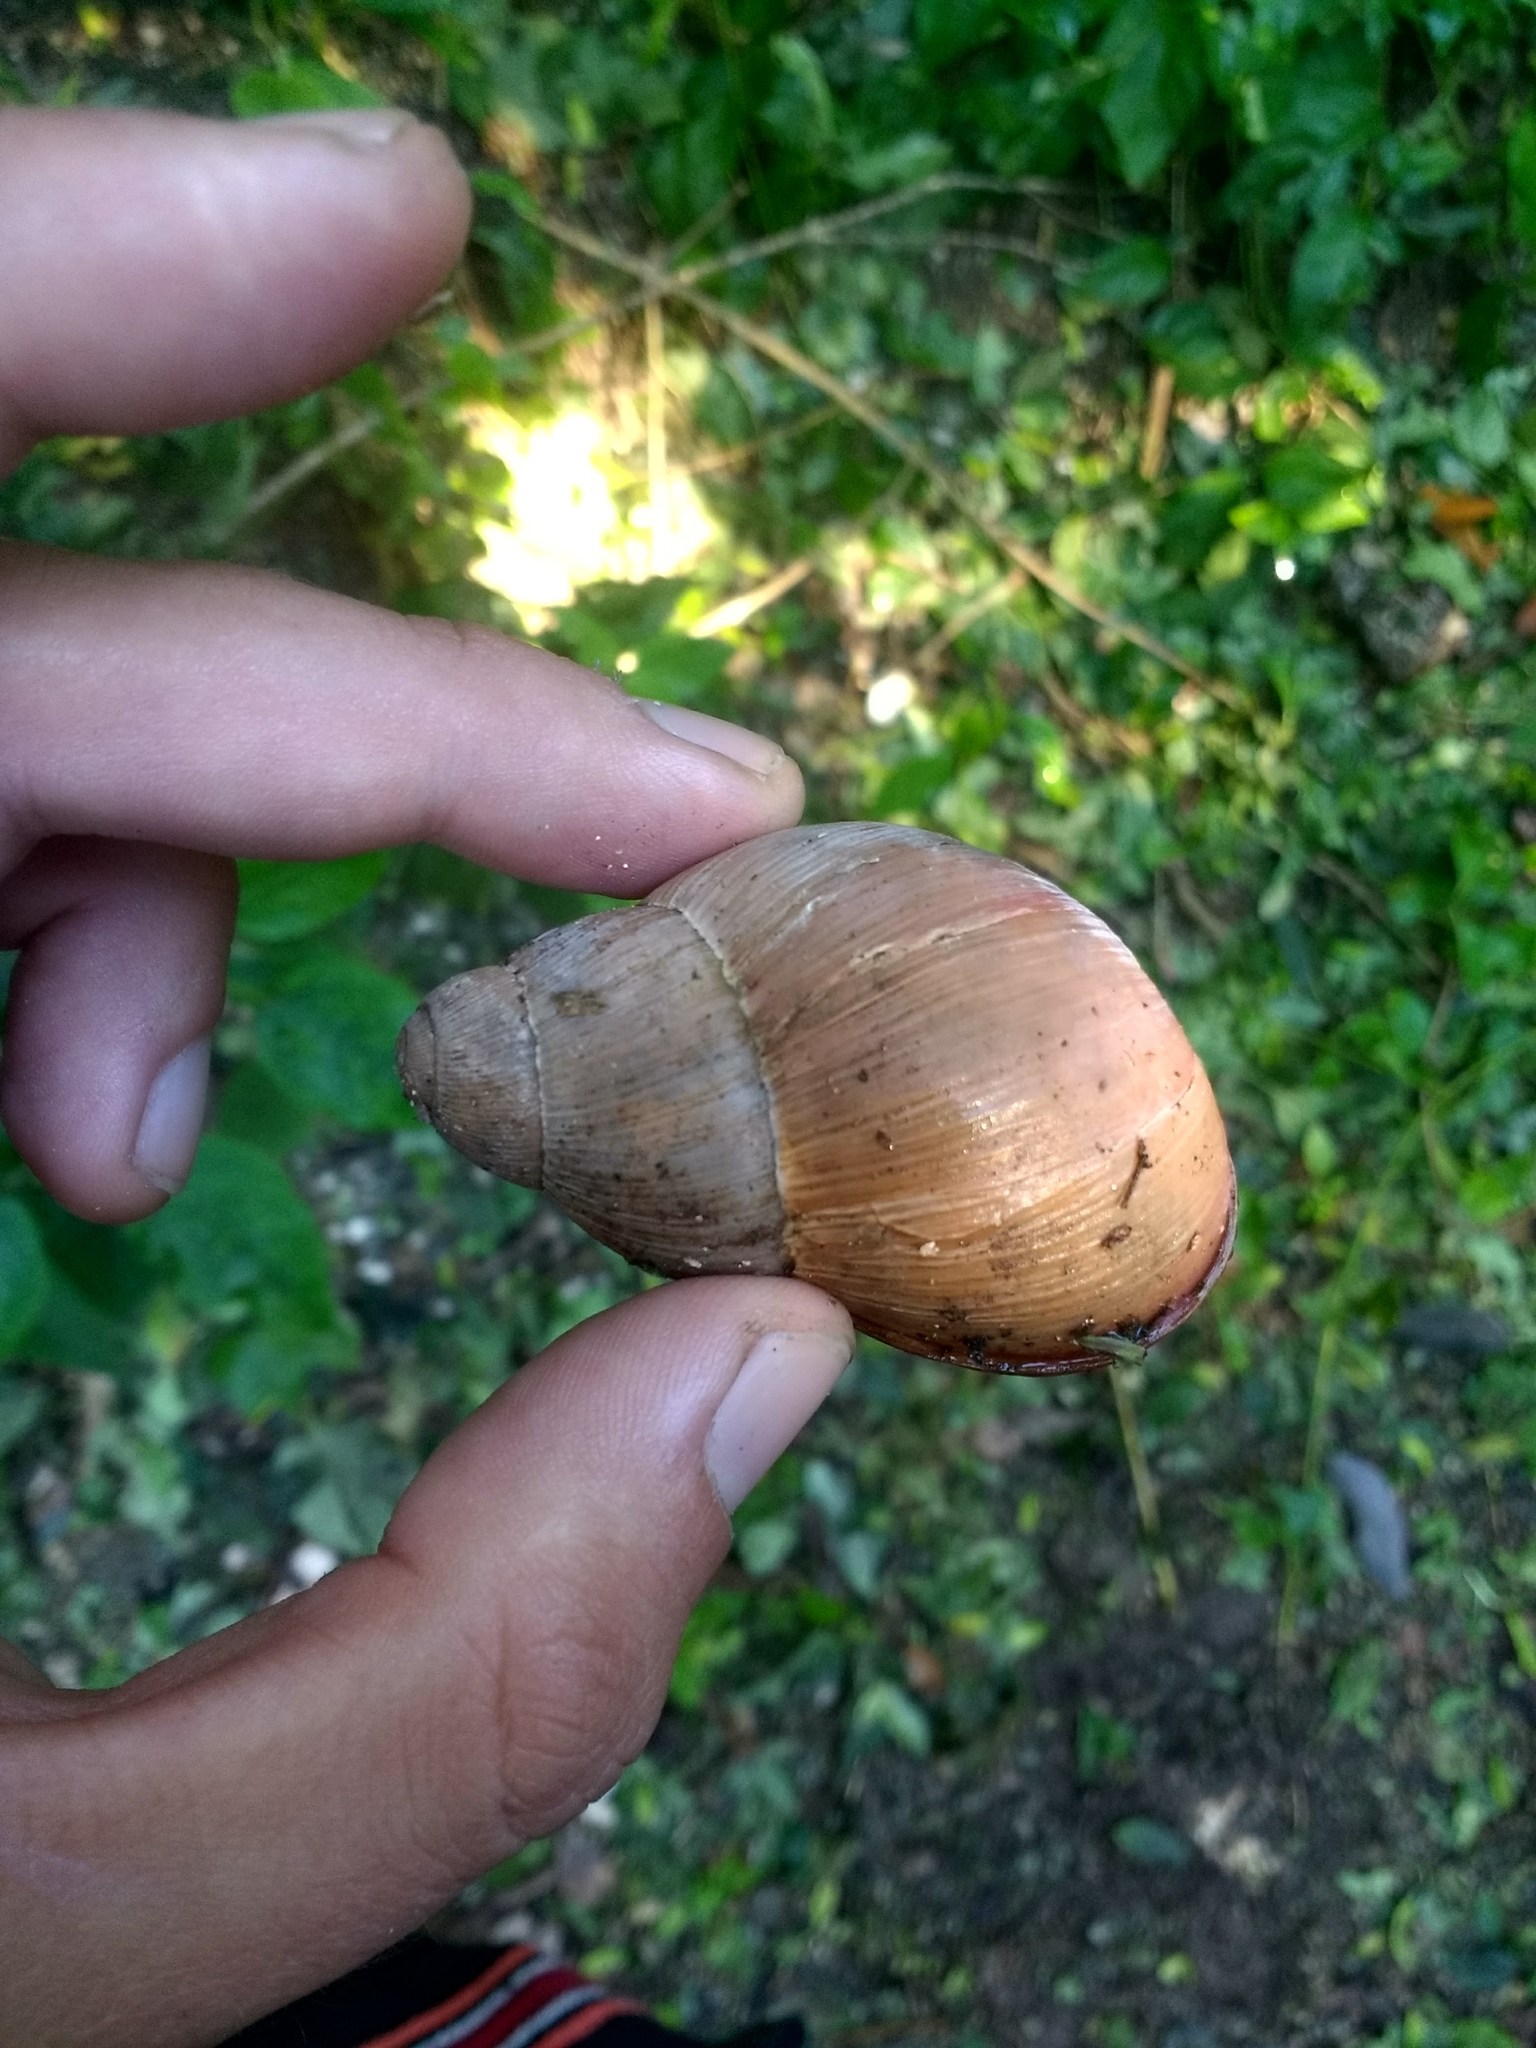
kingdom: Animalia
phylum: Mollusca
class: Gastropoda
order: Stylommatophora
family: Strophocheilidae
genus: Megalobulimus
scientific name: Megalobulimus oblongus
